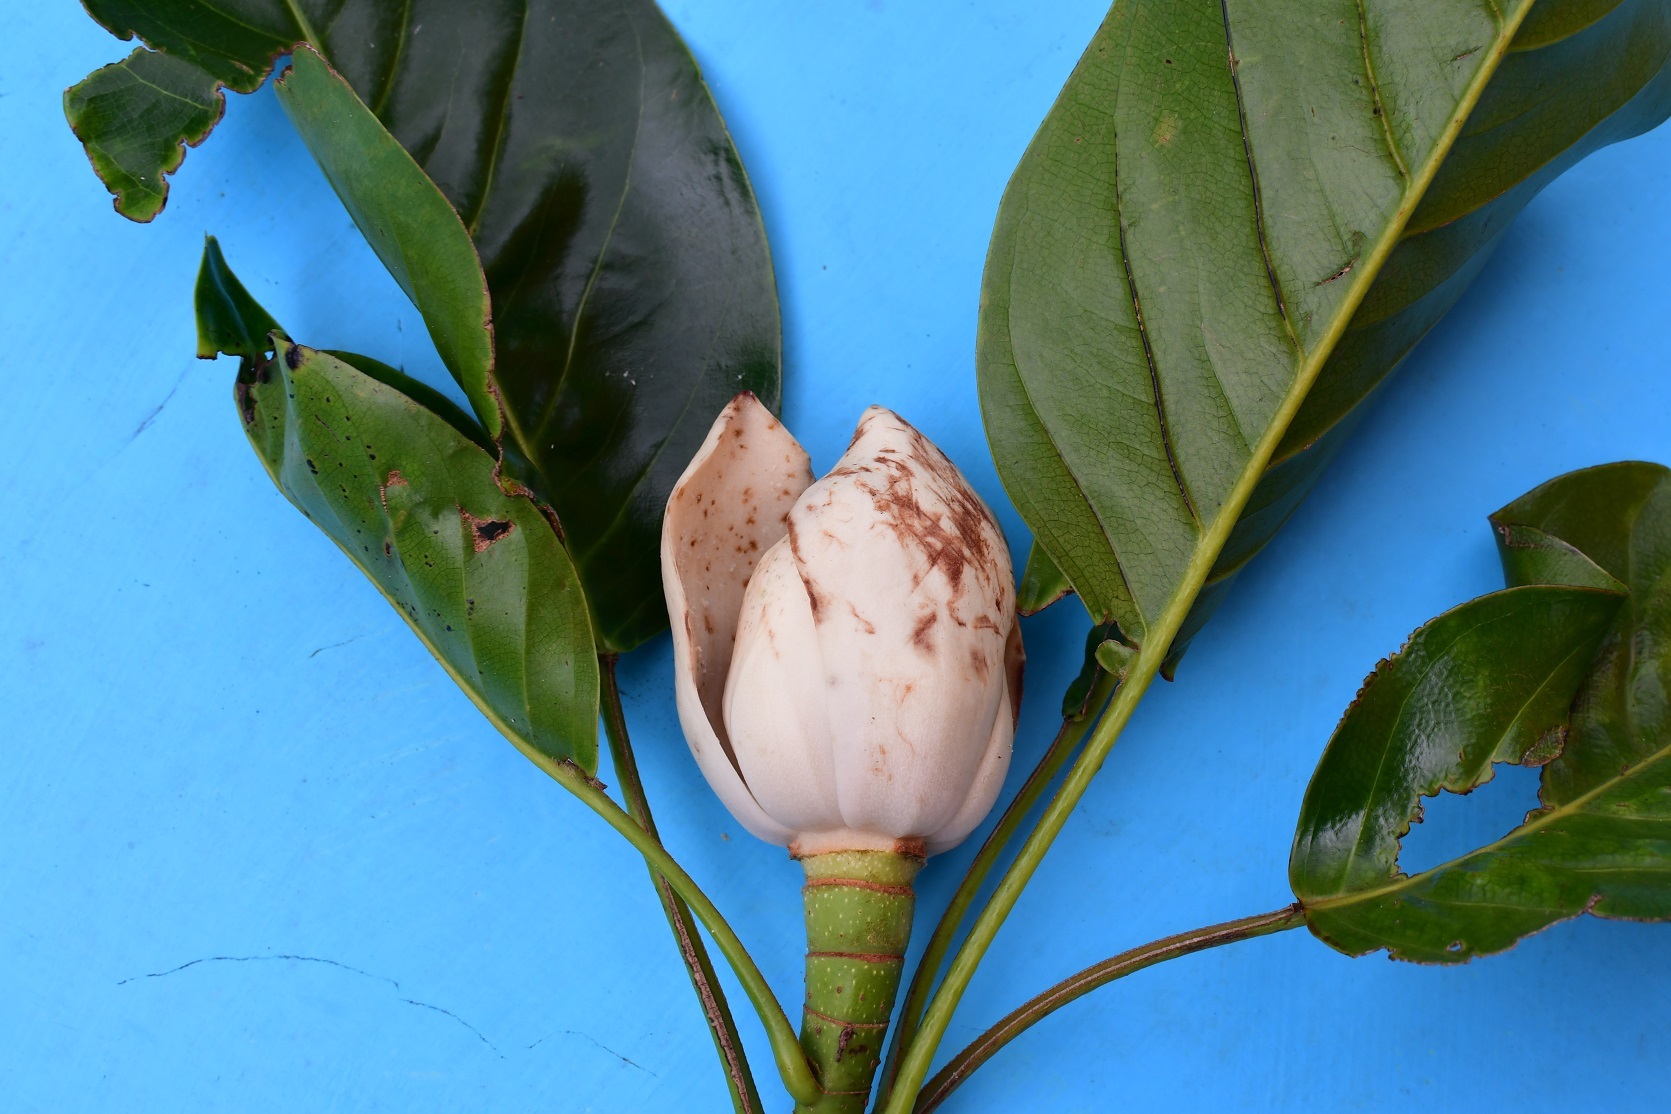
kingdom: Plantae
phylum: Tracheophyta
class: Magnoliopsida
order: Magnoliales
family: Magnoliaceae
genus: Magnolia
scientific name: Magnolia perezfarrerae
